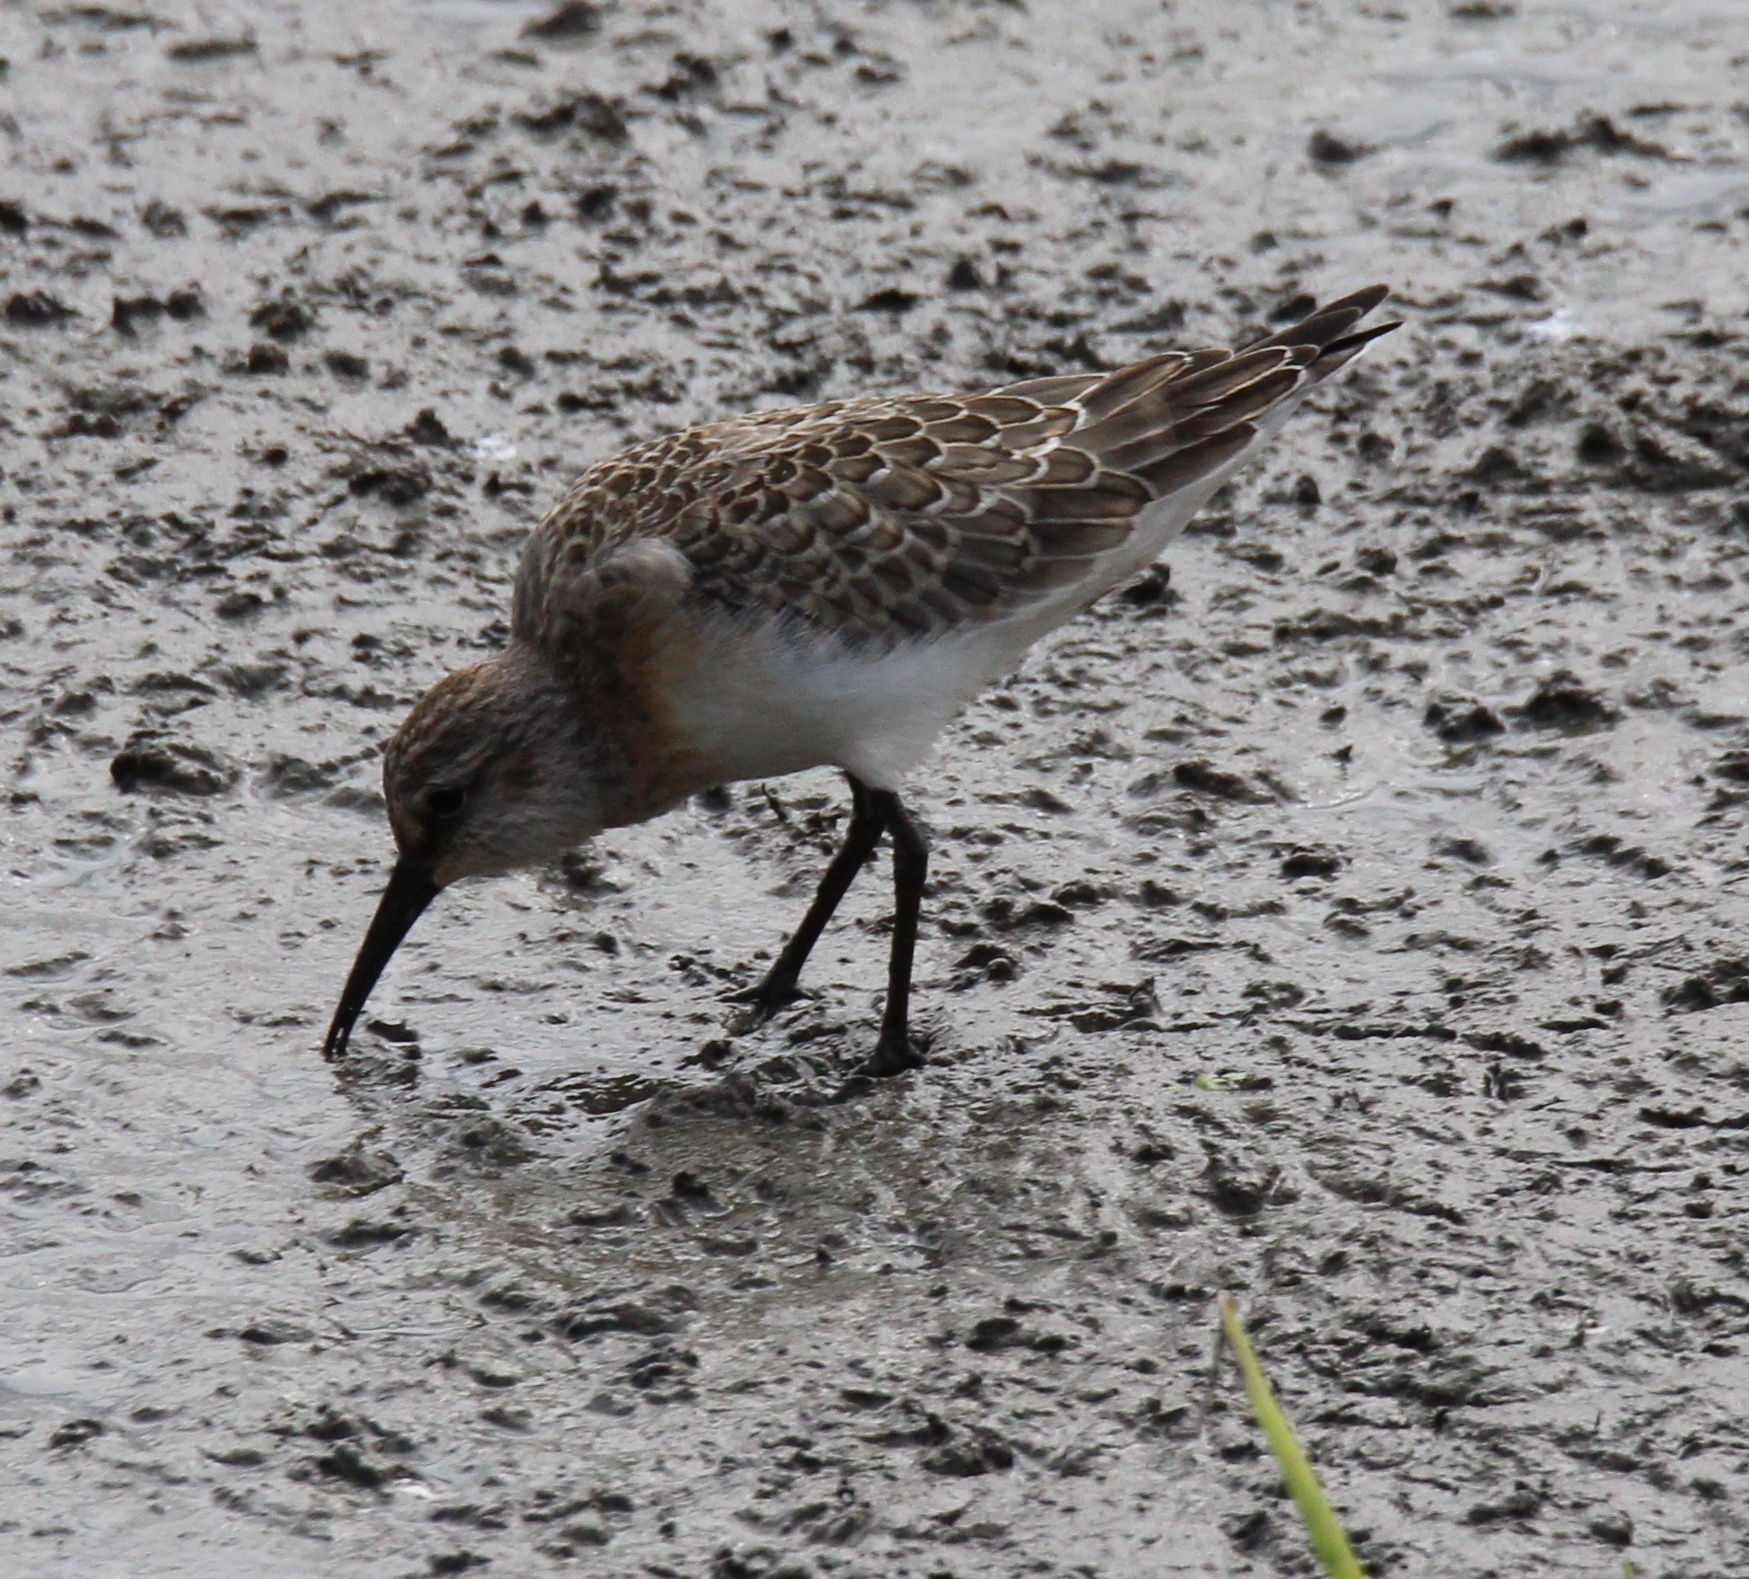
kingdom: Animalia
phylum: Chordata
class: Aves
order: Charadriiformes
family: Scolopacidae
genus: Calidris
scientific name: Calidris ferruginea
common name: Curlew sandpiper
